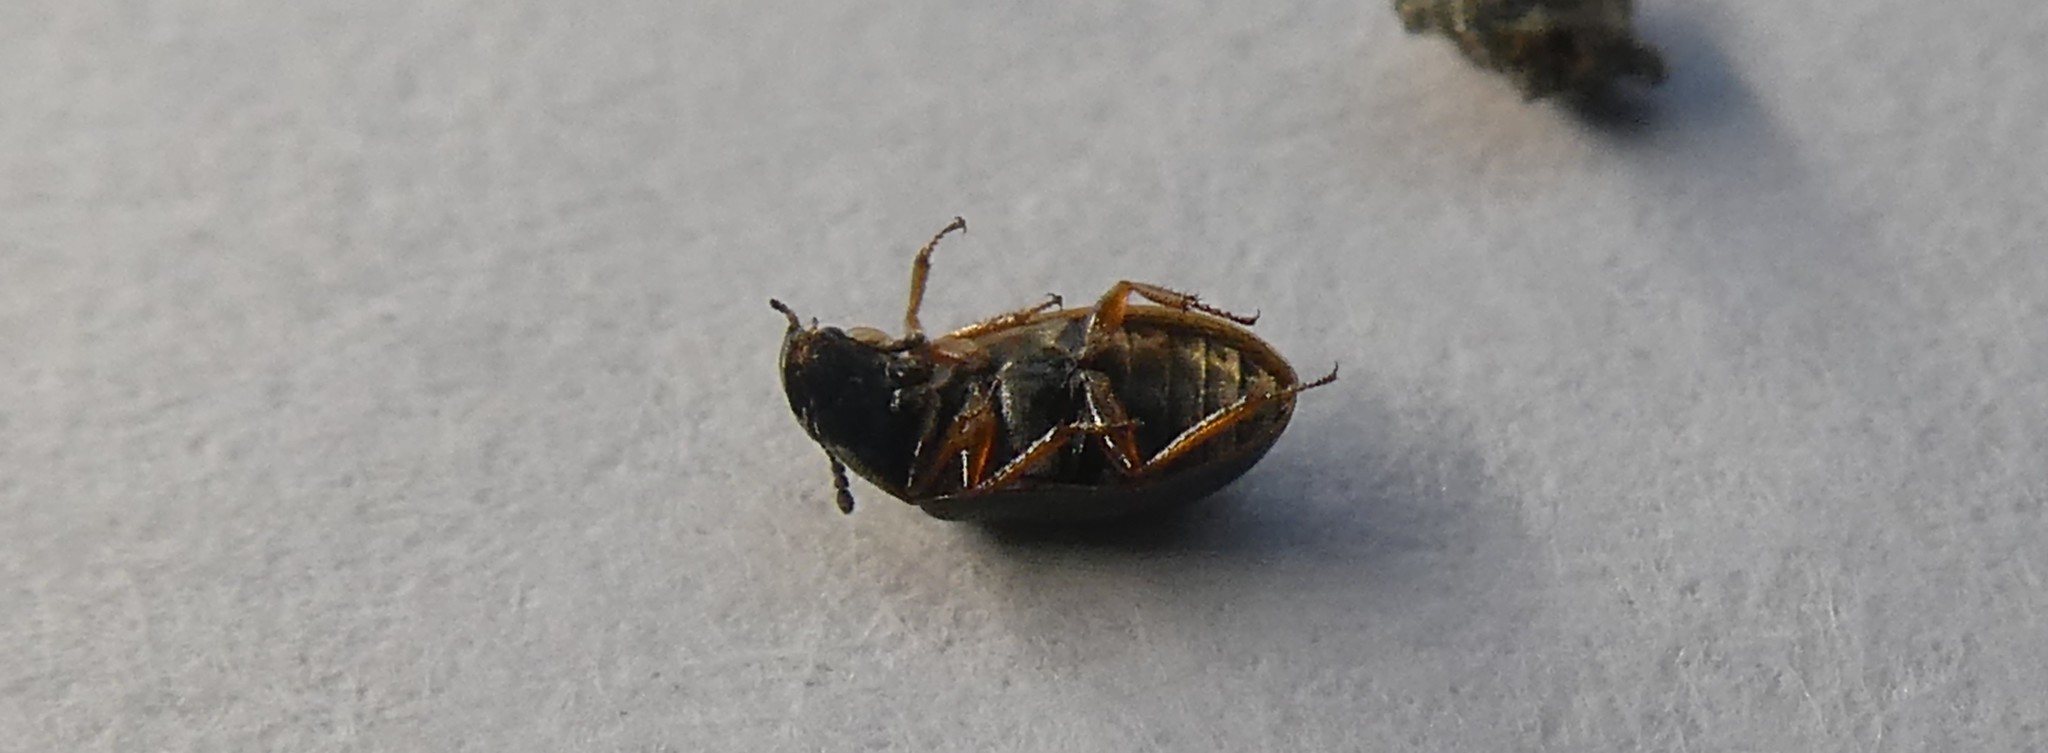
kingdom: Animalia
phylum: Arthropoda
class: Insecta
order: Coleoptera
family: Hydrophilidae
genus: Horelophus
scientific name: Horelophus walkeri
